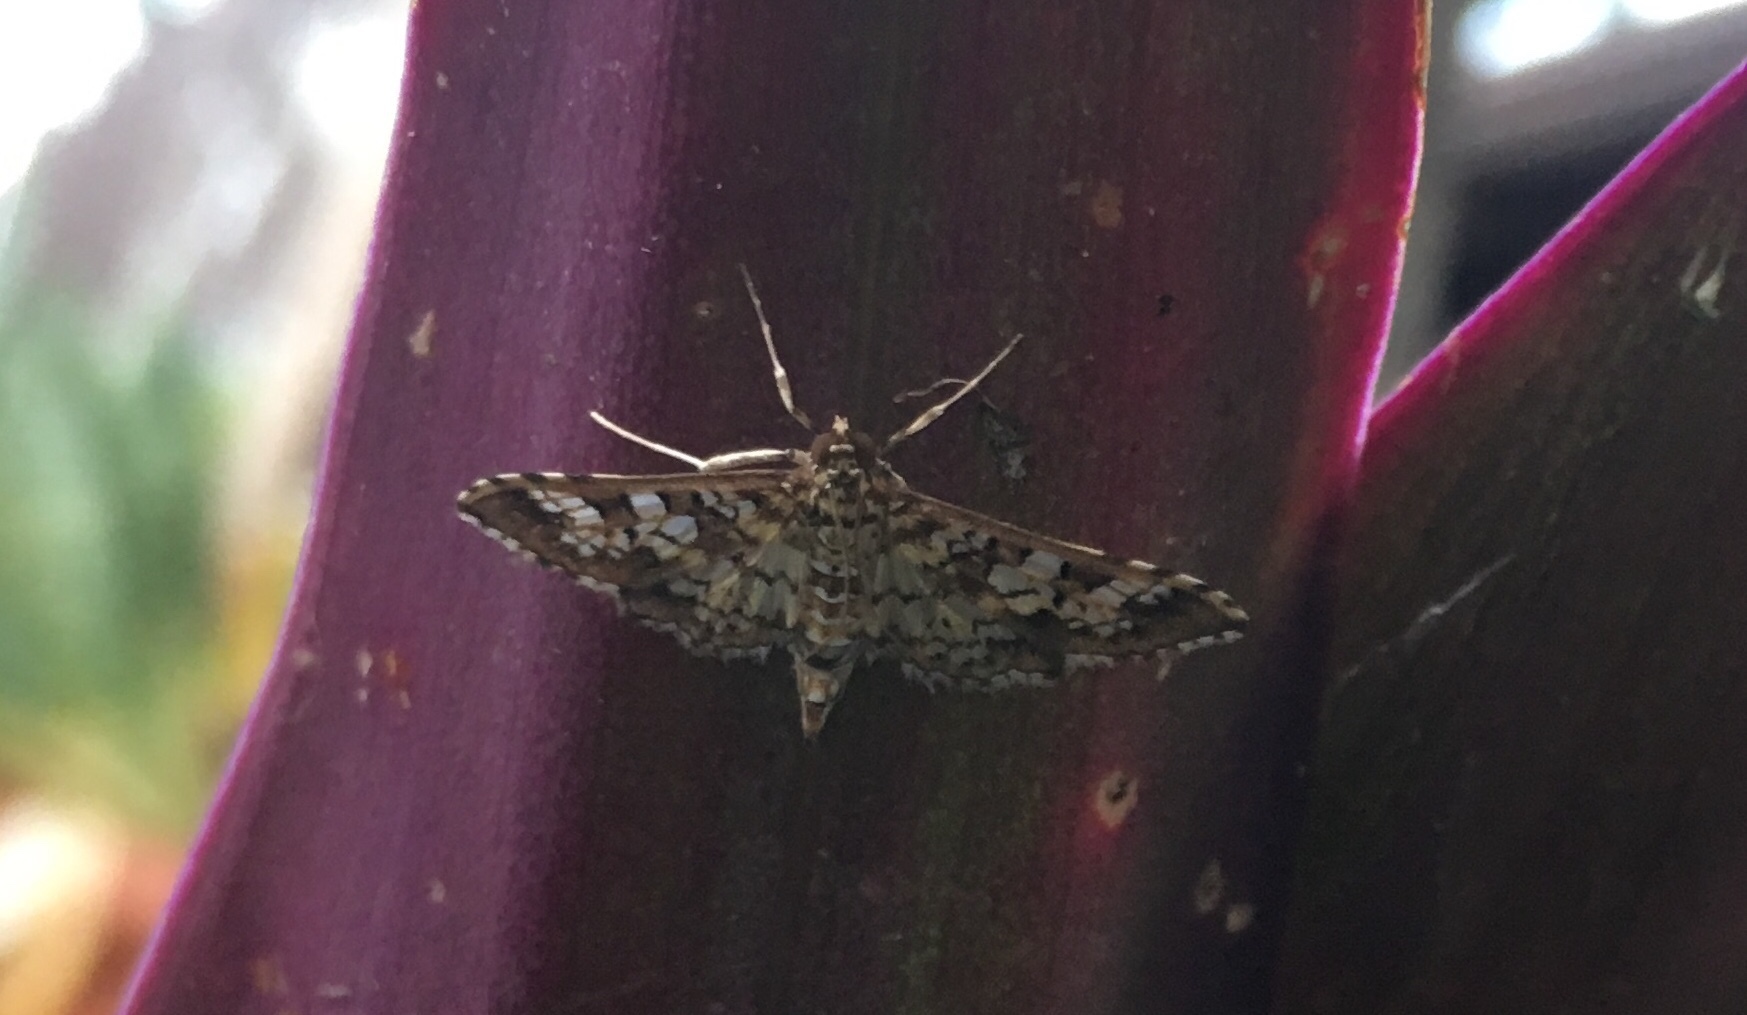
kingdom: Animalia
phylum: Arthropoda
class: Insecta
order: Lepidoptera
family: Crambidae
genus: Samea
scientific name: Samea ecclesialis
